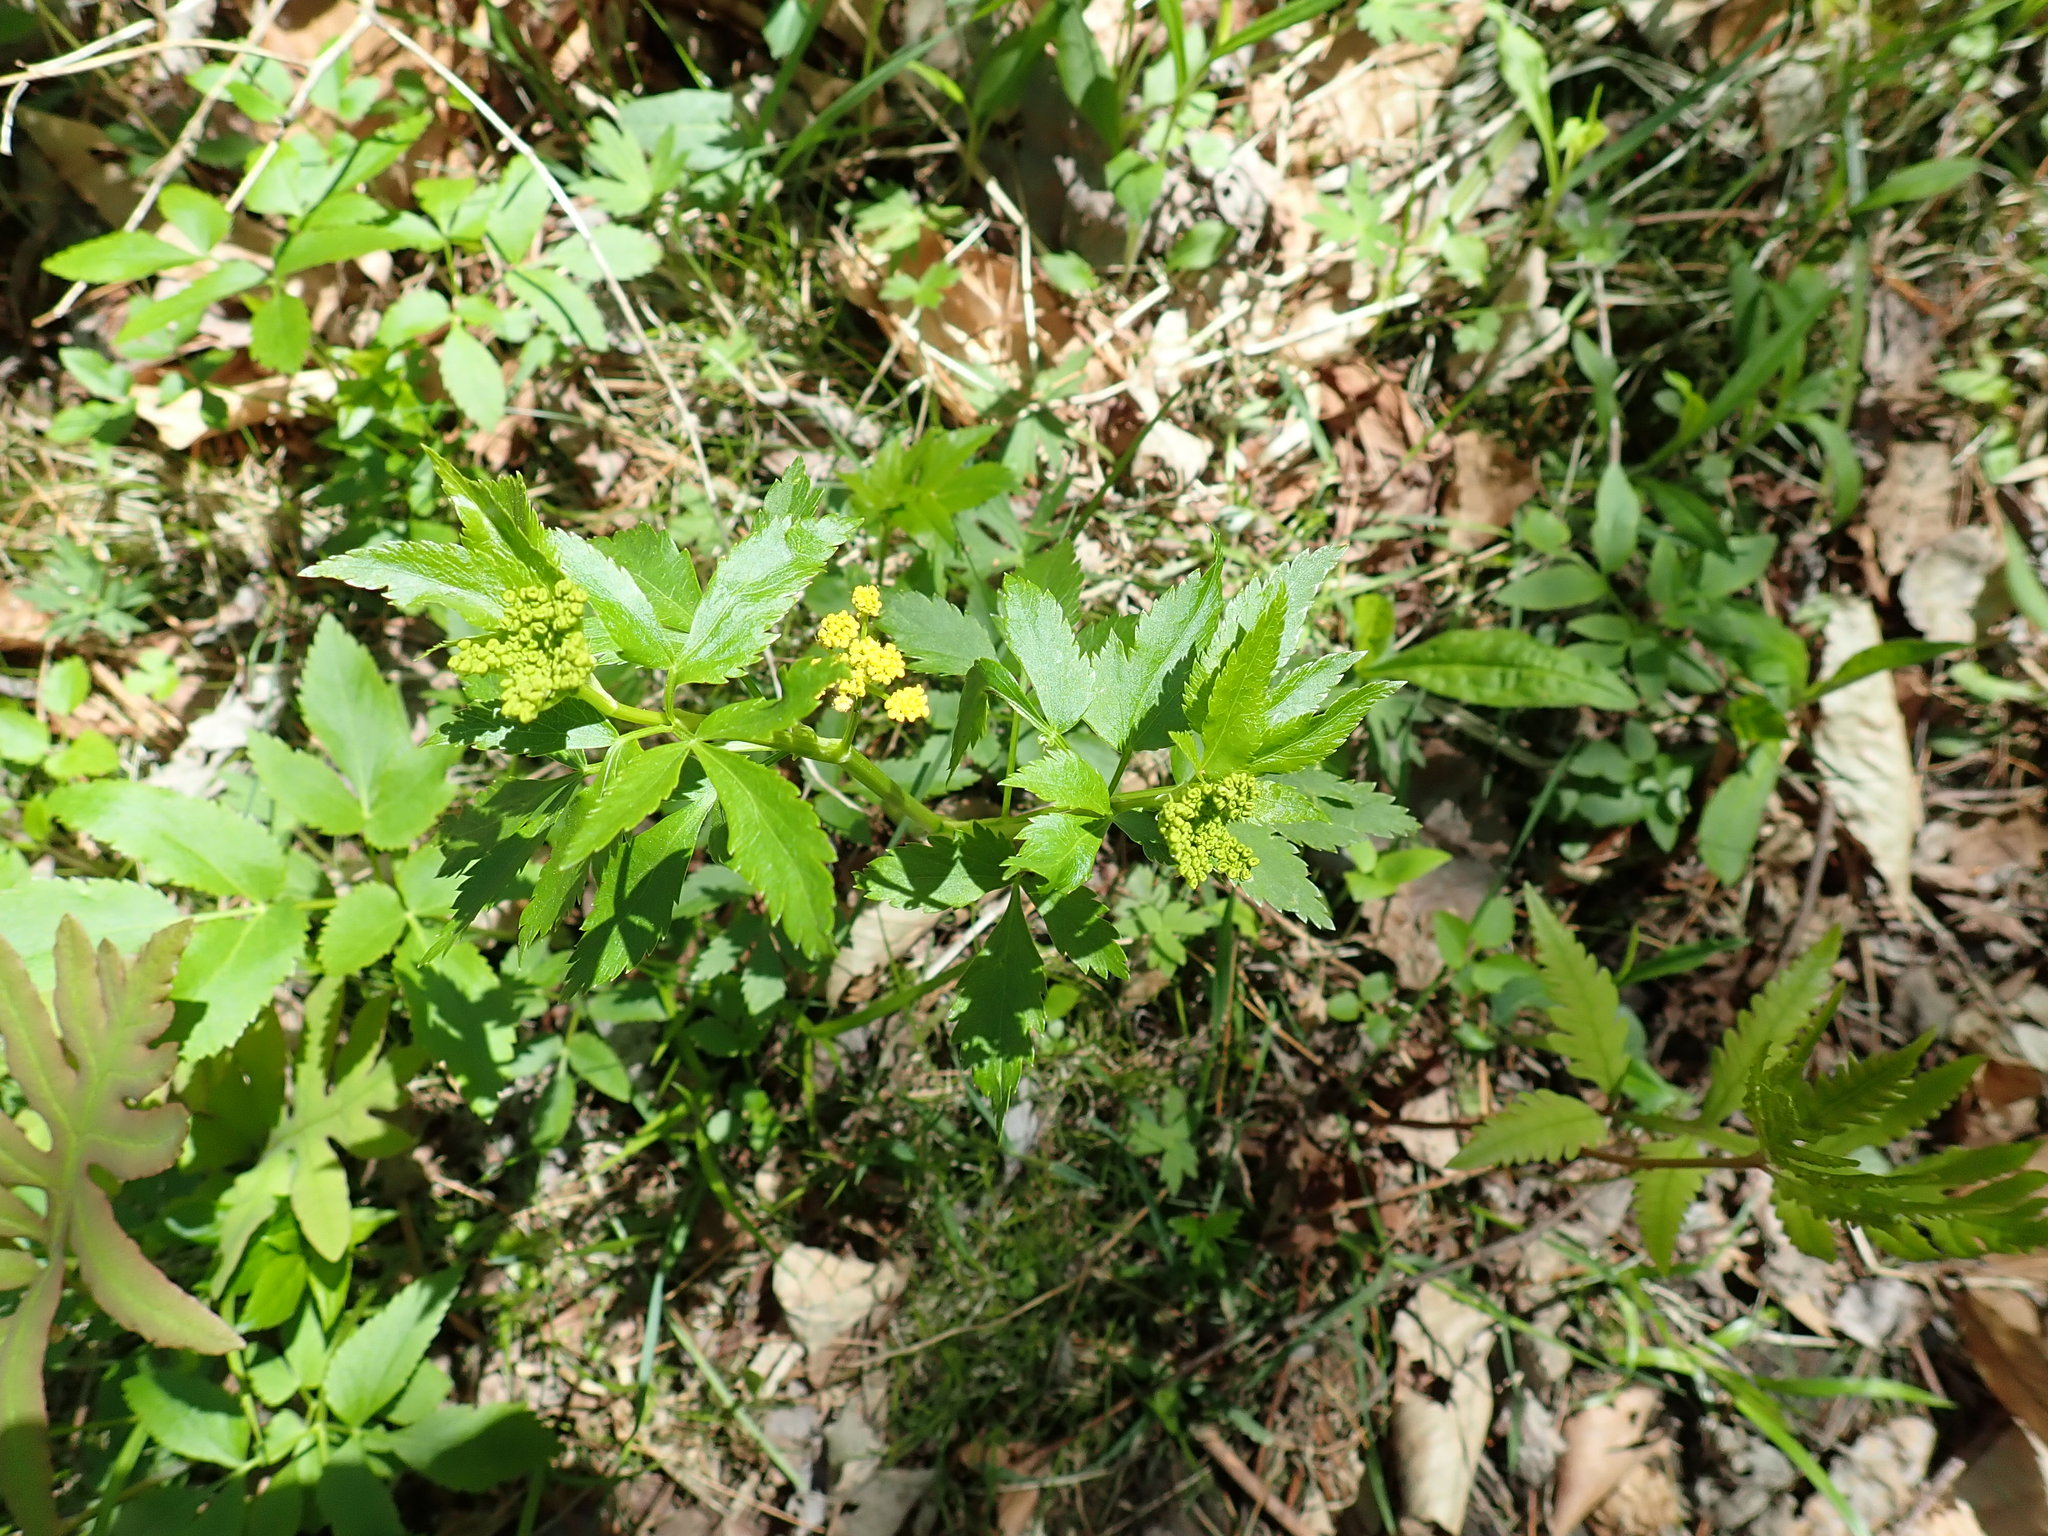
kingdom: Plantae
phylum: Tracheophyta
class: Magnoliopsida
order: Apiales
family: Apiaceae
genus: Zizia
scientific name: Zizia aurea
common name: Golden alexanders
